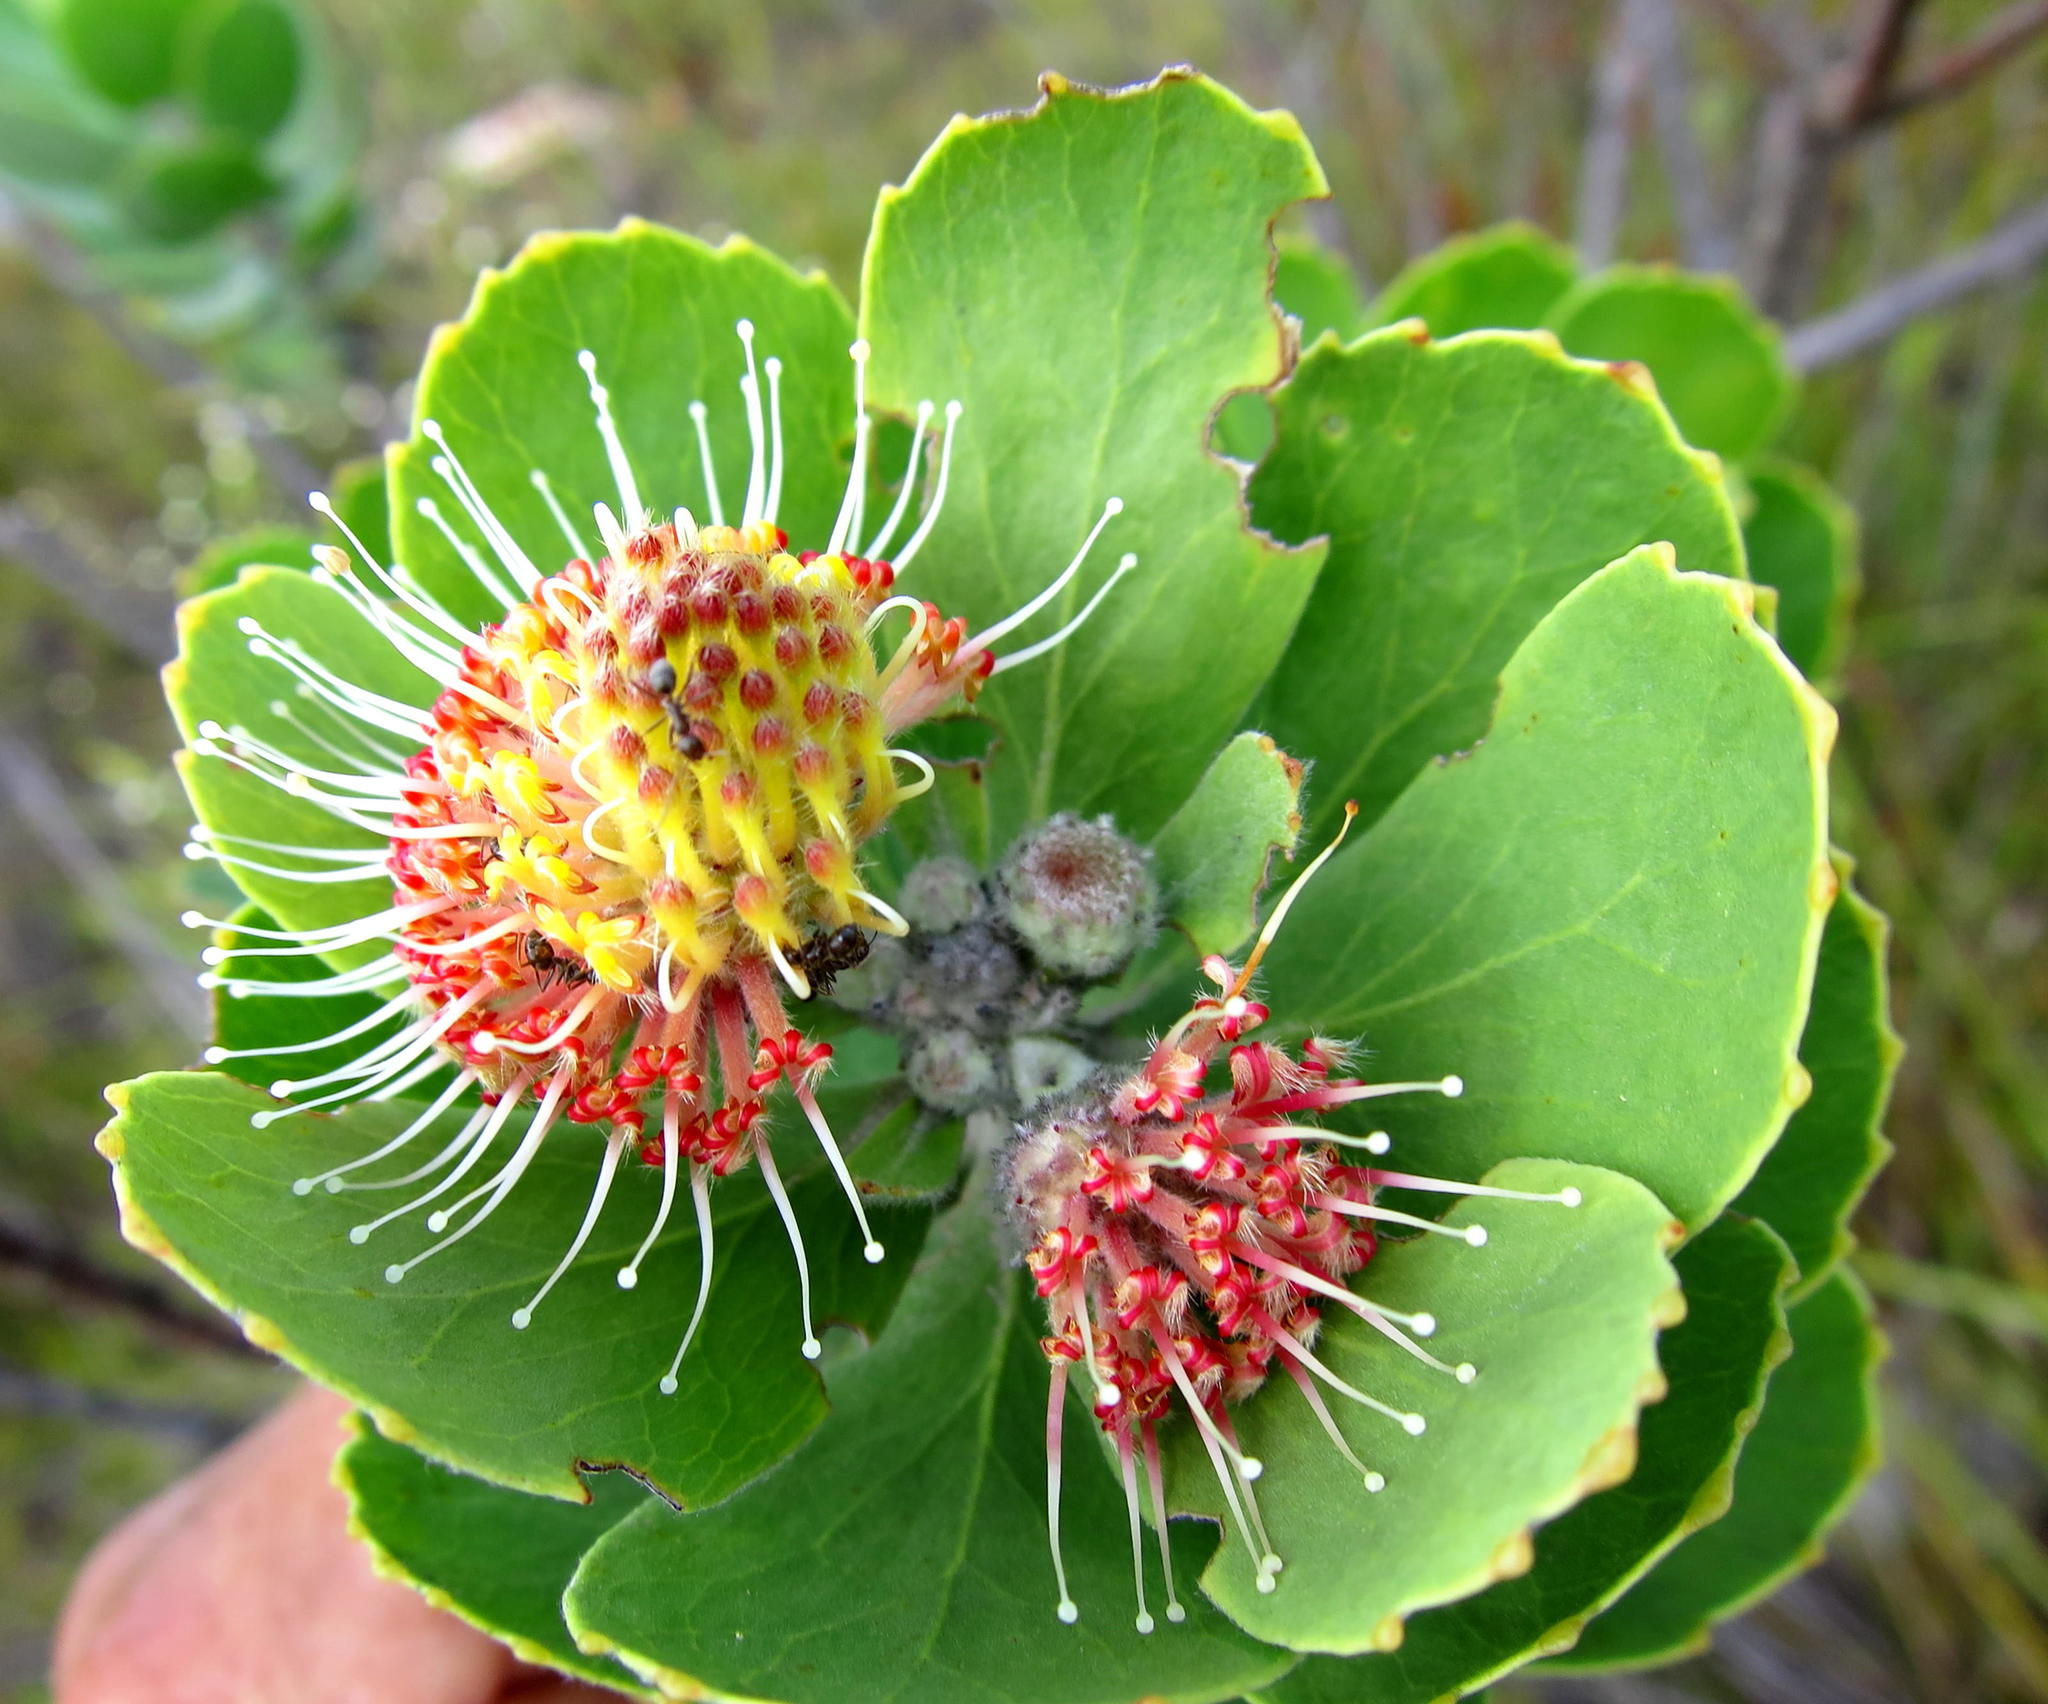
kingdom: Plantae
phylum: Tracheophyta
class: Magnoliopsida
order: Proteales
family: Proteaceae
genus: Leucospermum
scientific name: Leucospermum winteri
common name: Riversdale pincushion
